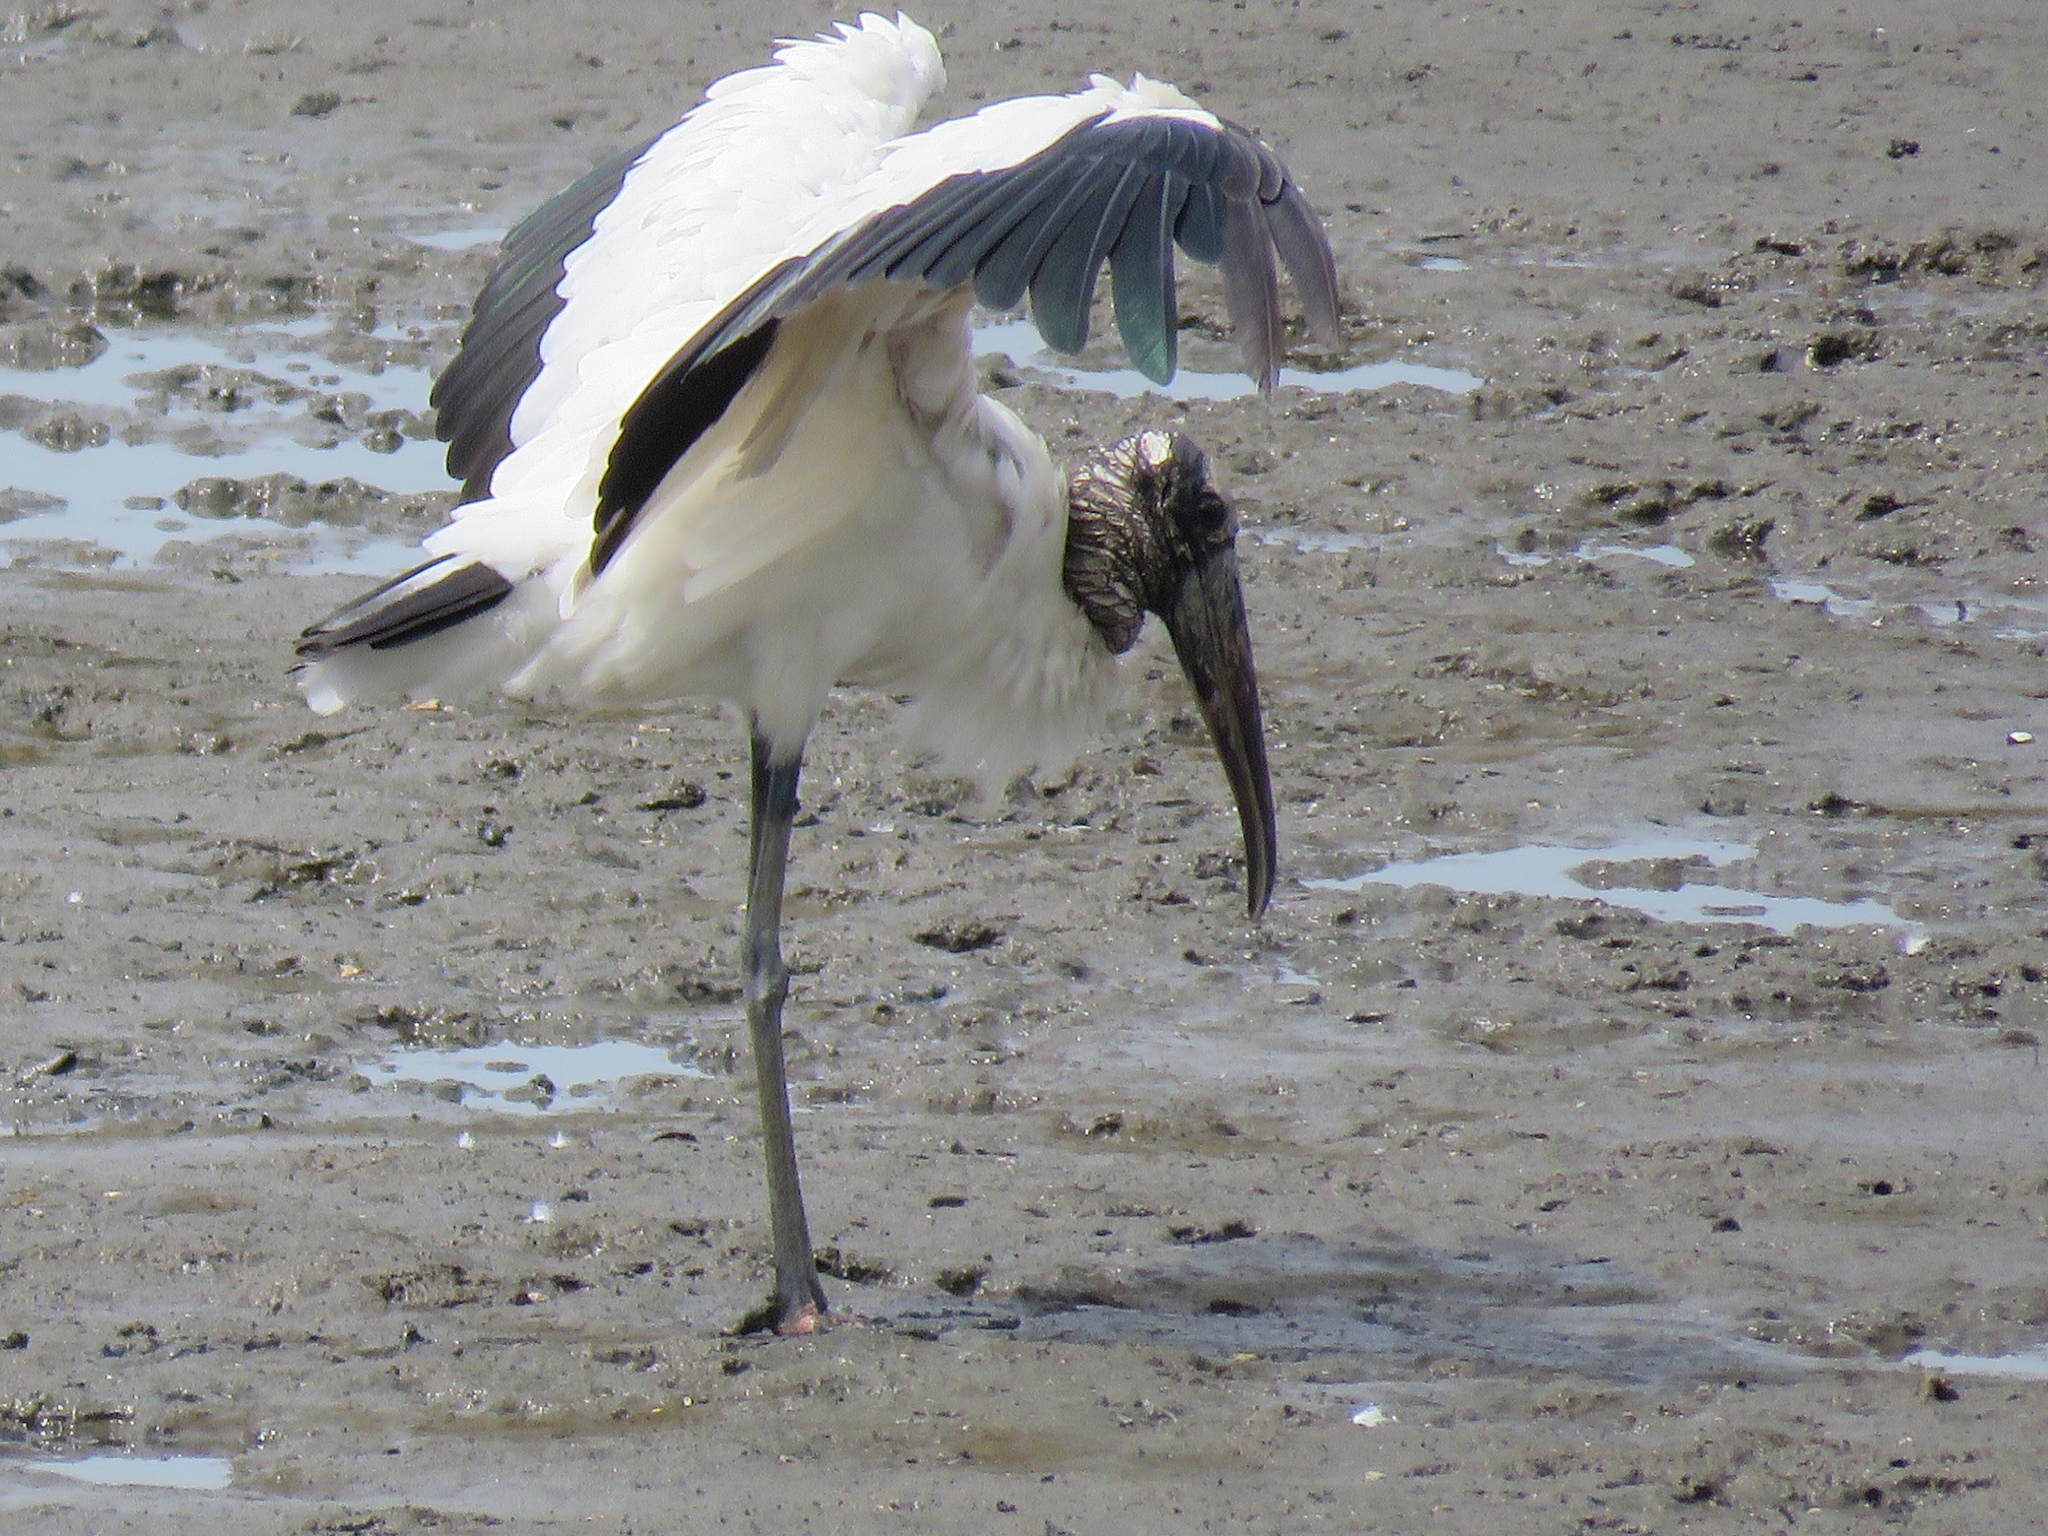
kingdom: Animalia
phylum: Chordata
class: Aves
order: Ciconiiformes
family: Ciconiidae
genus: Mycteria
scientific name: Mycteria americana
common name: Wood stork
